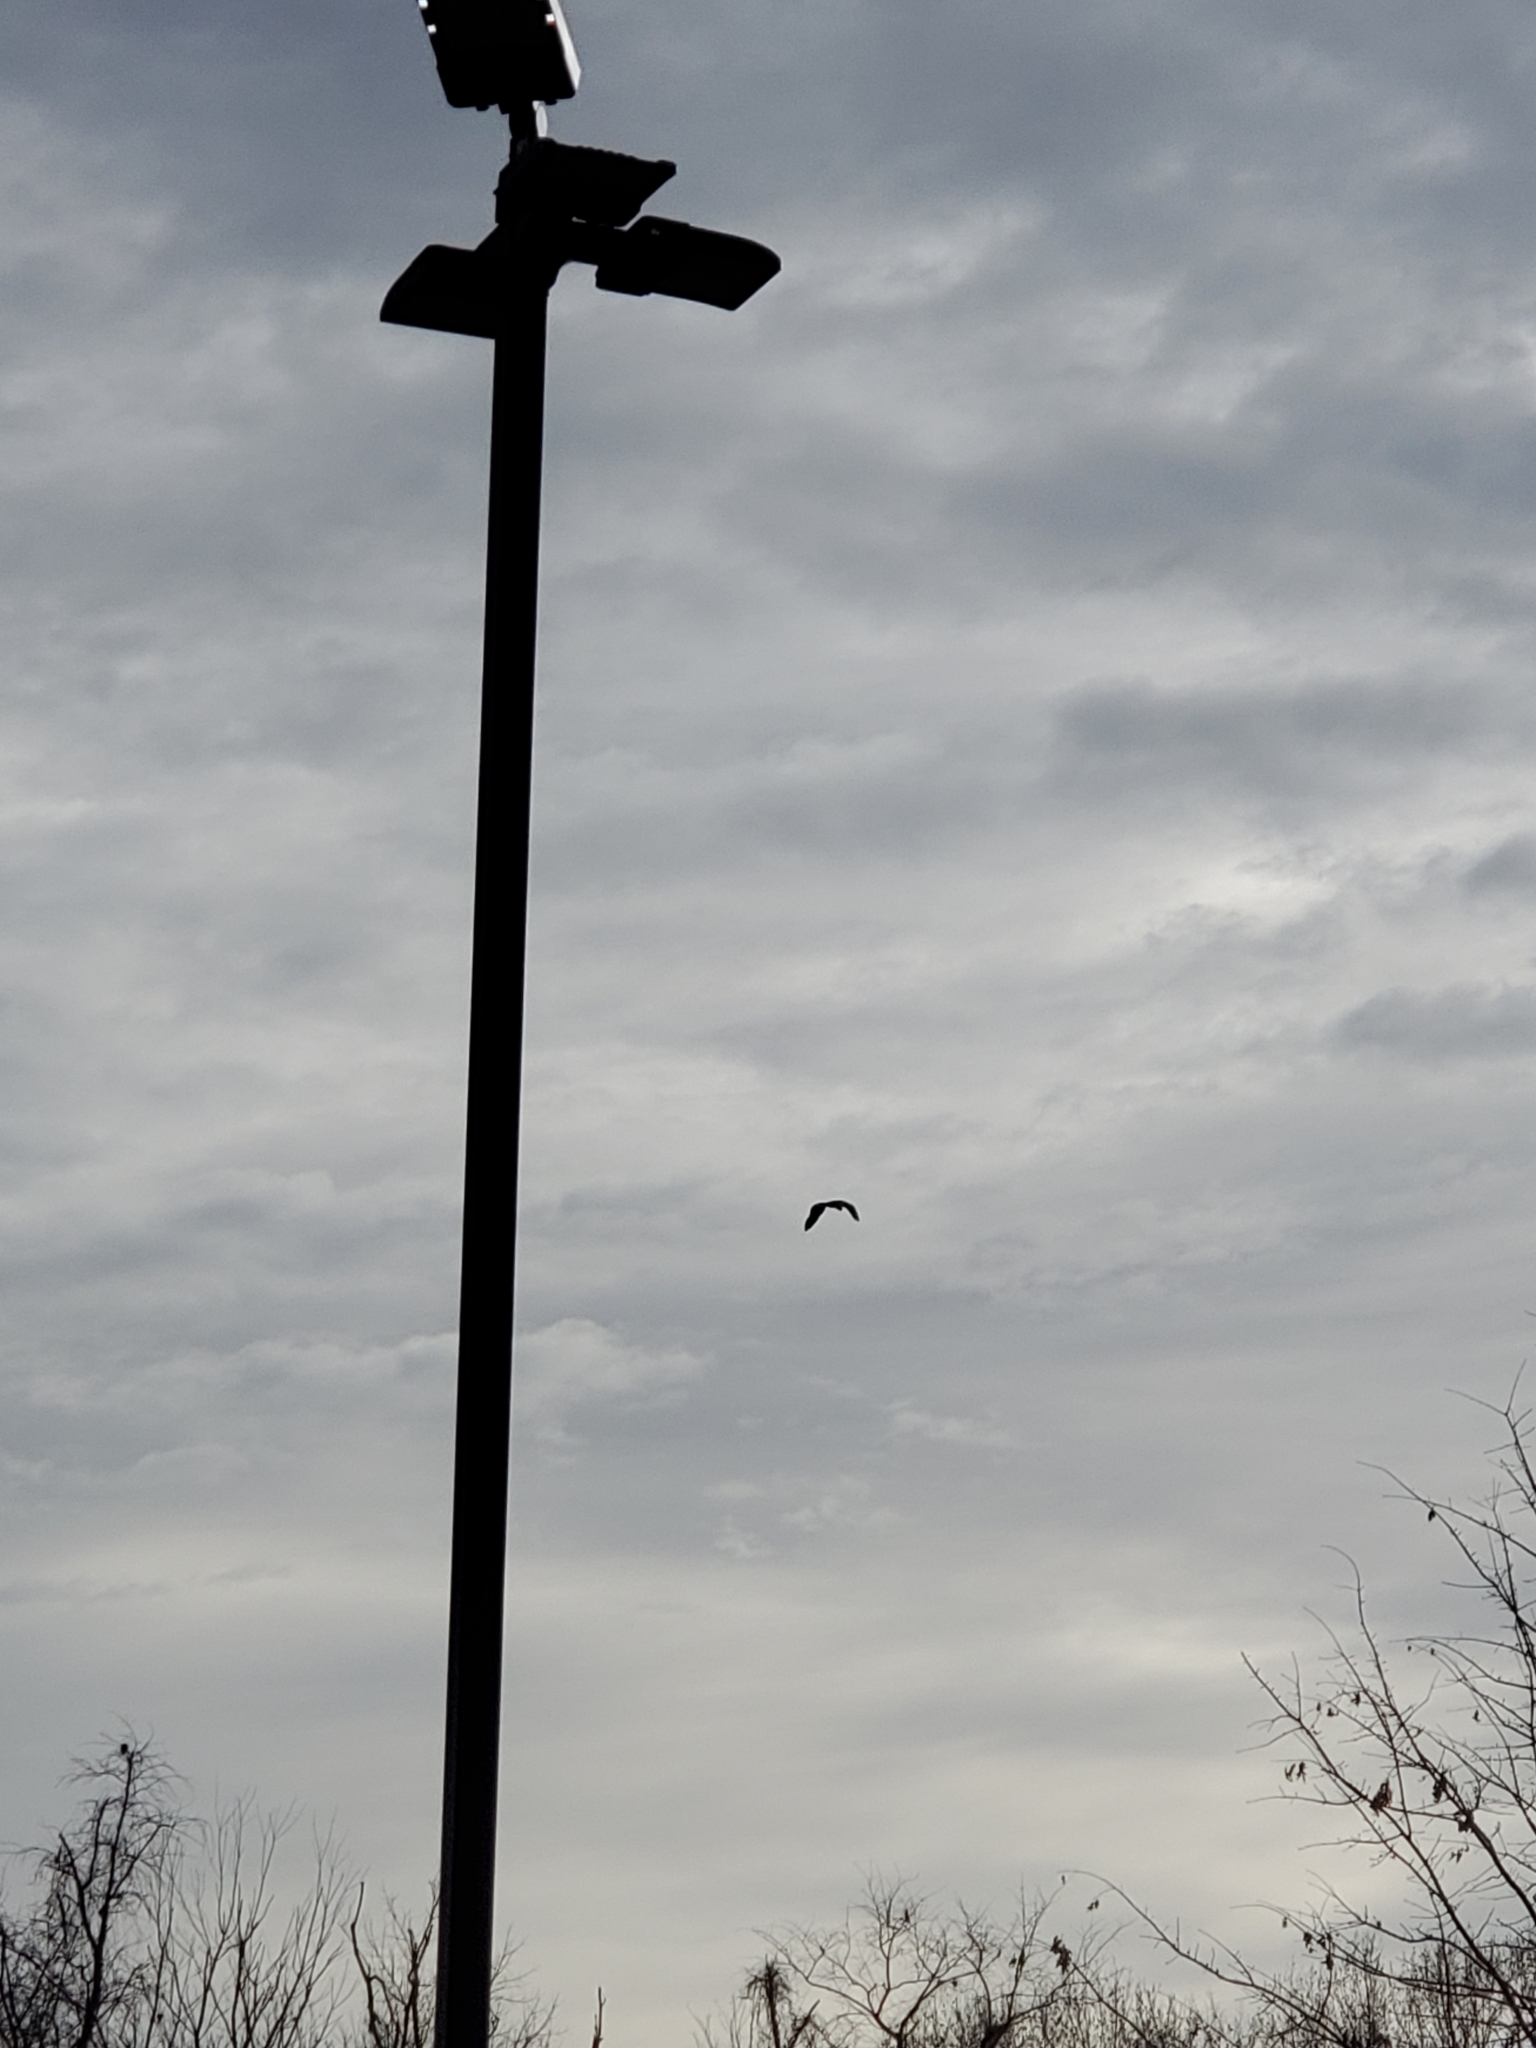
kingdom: Animalia
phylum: Chordata
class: Aves
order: Pelecaniformes
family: Ardeidae
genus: Ardea
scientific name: Ardea herodias
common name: Great blue heron
